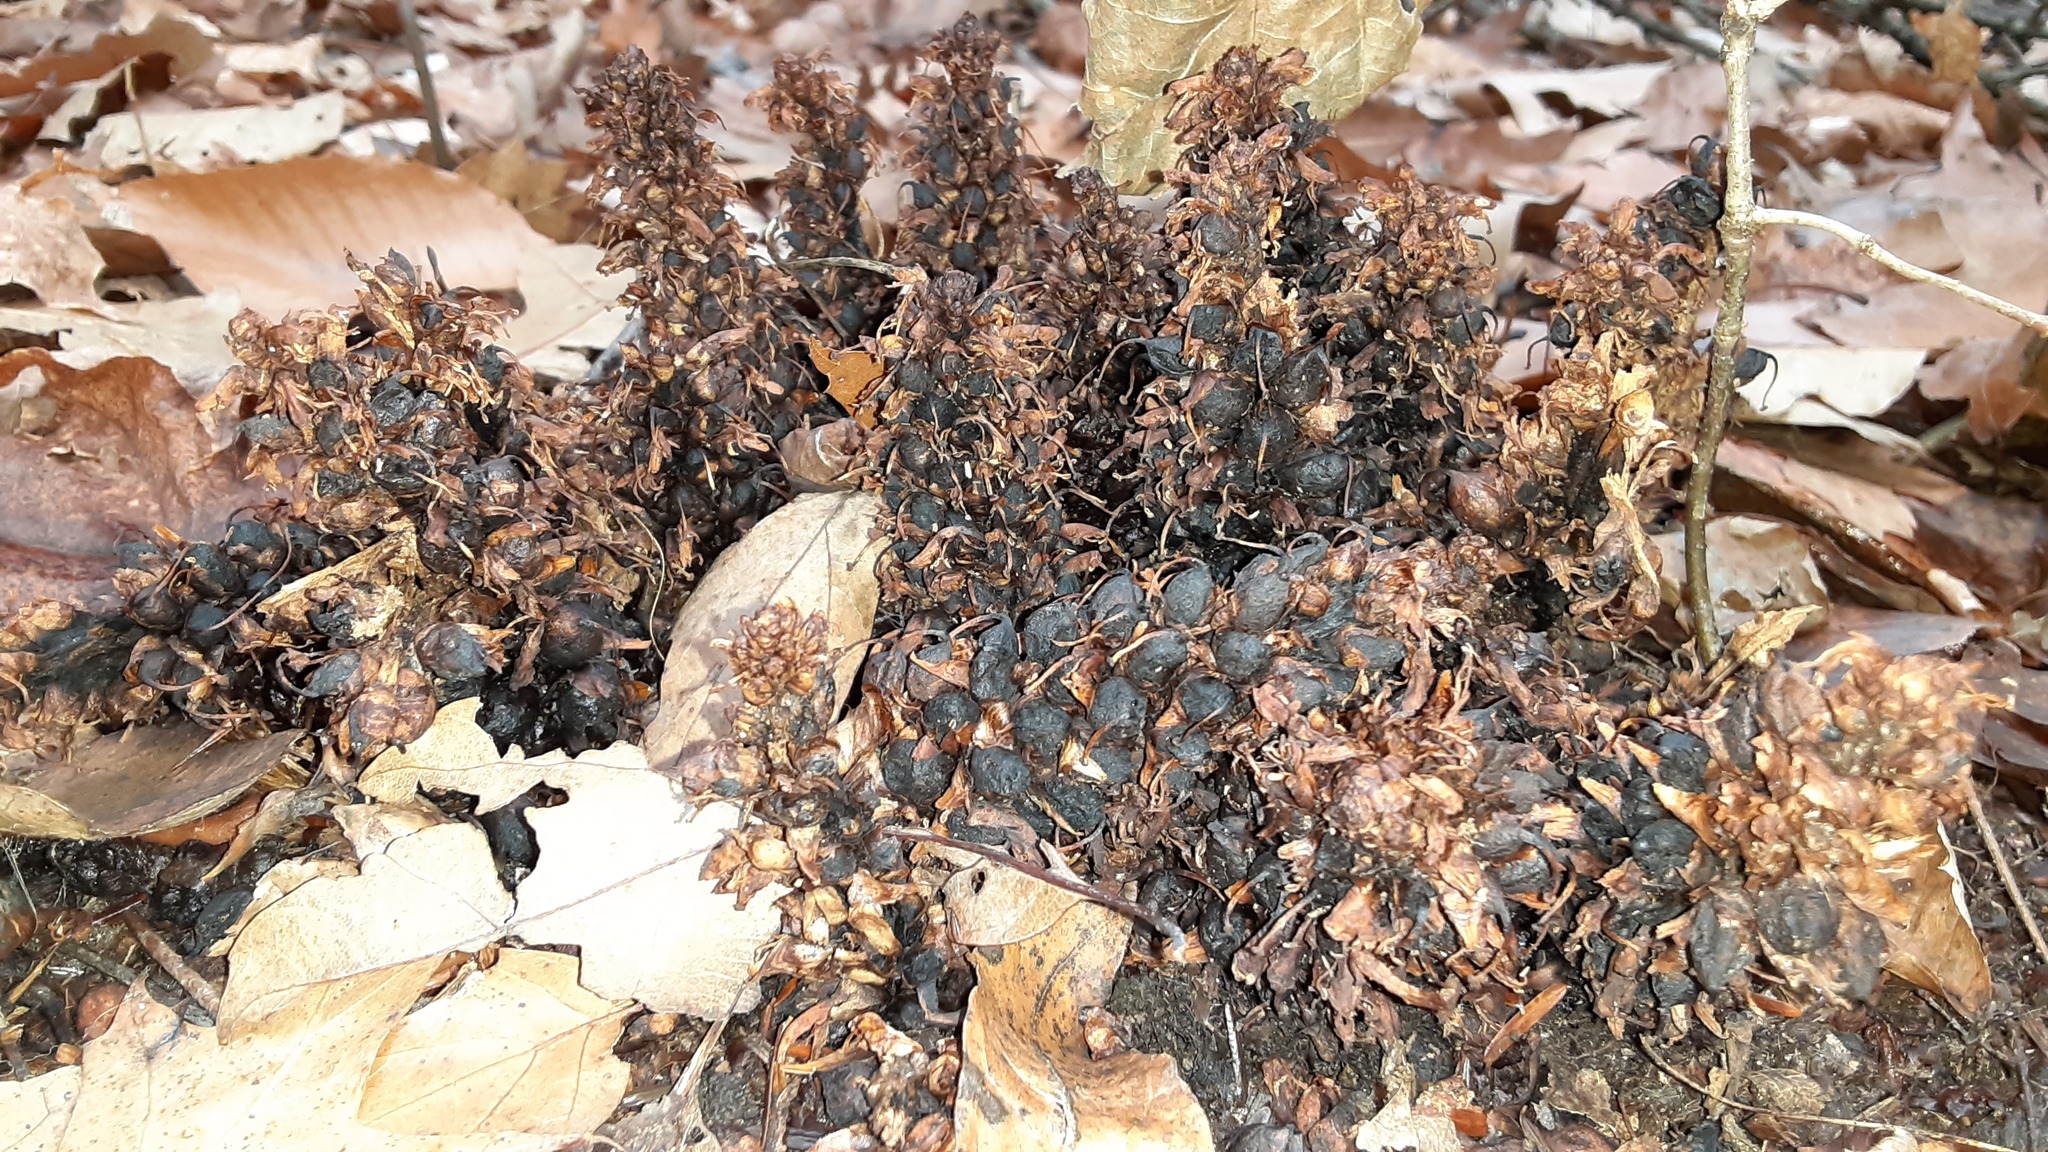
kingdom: Plantae
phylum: Tracheophyta
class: Magnoliopsida
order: Lamiales
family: Orobanchaceae
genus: Conopholis
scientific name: Conopholis americana
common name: American cancer-root
